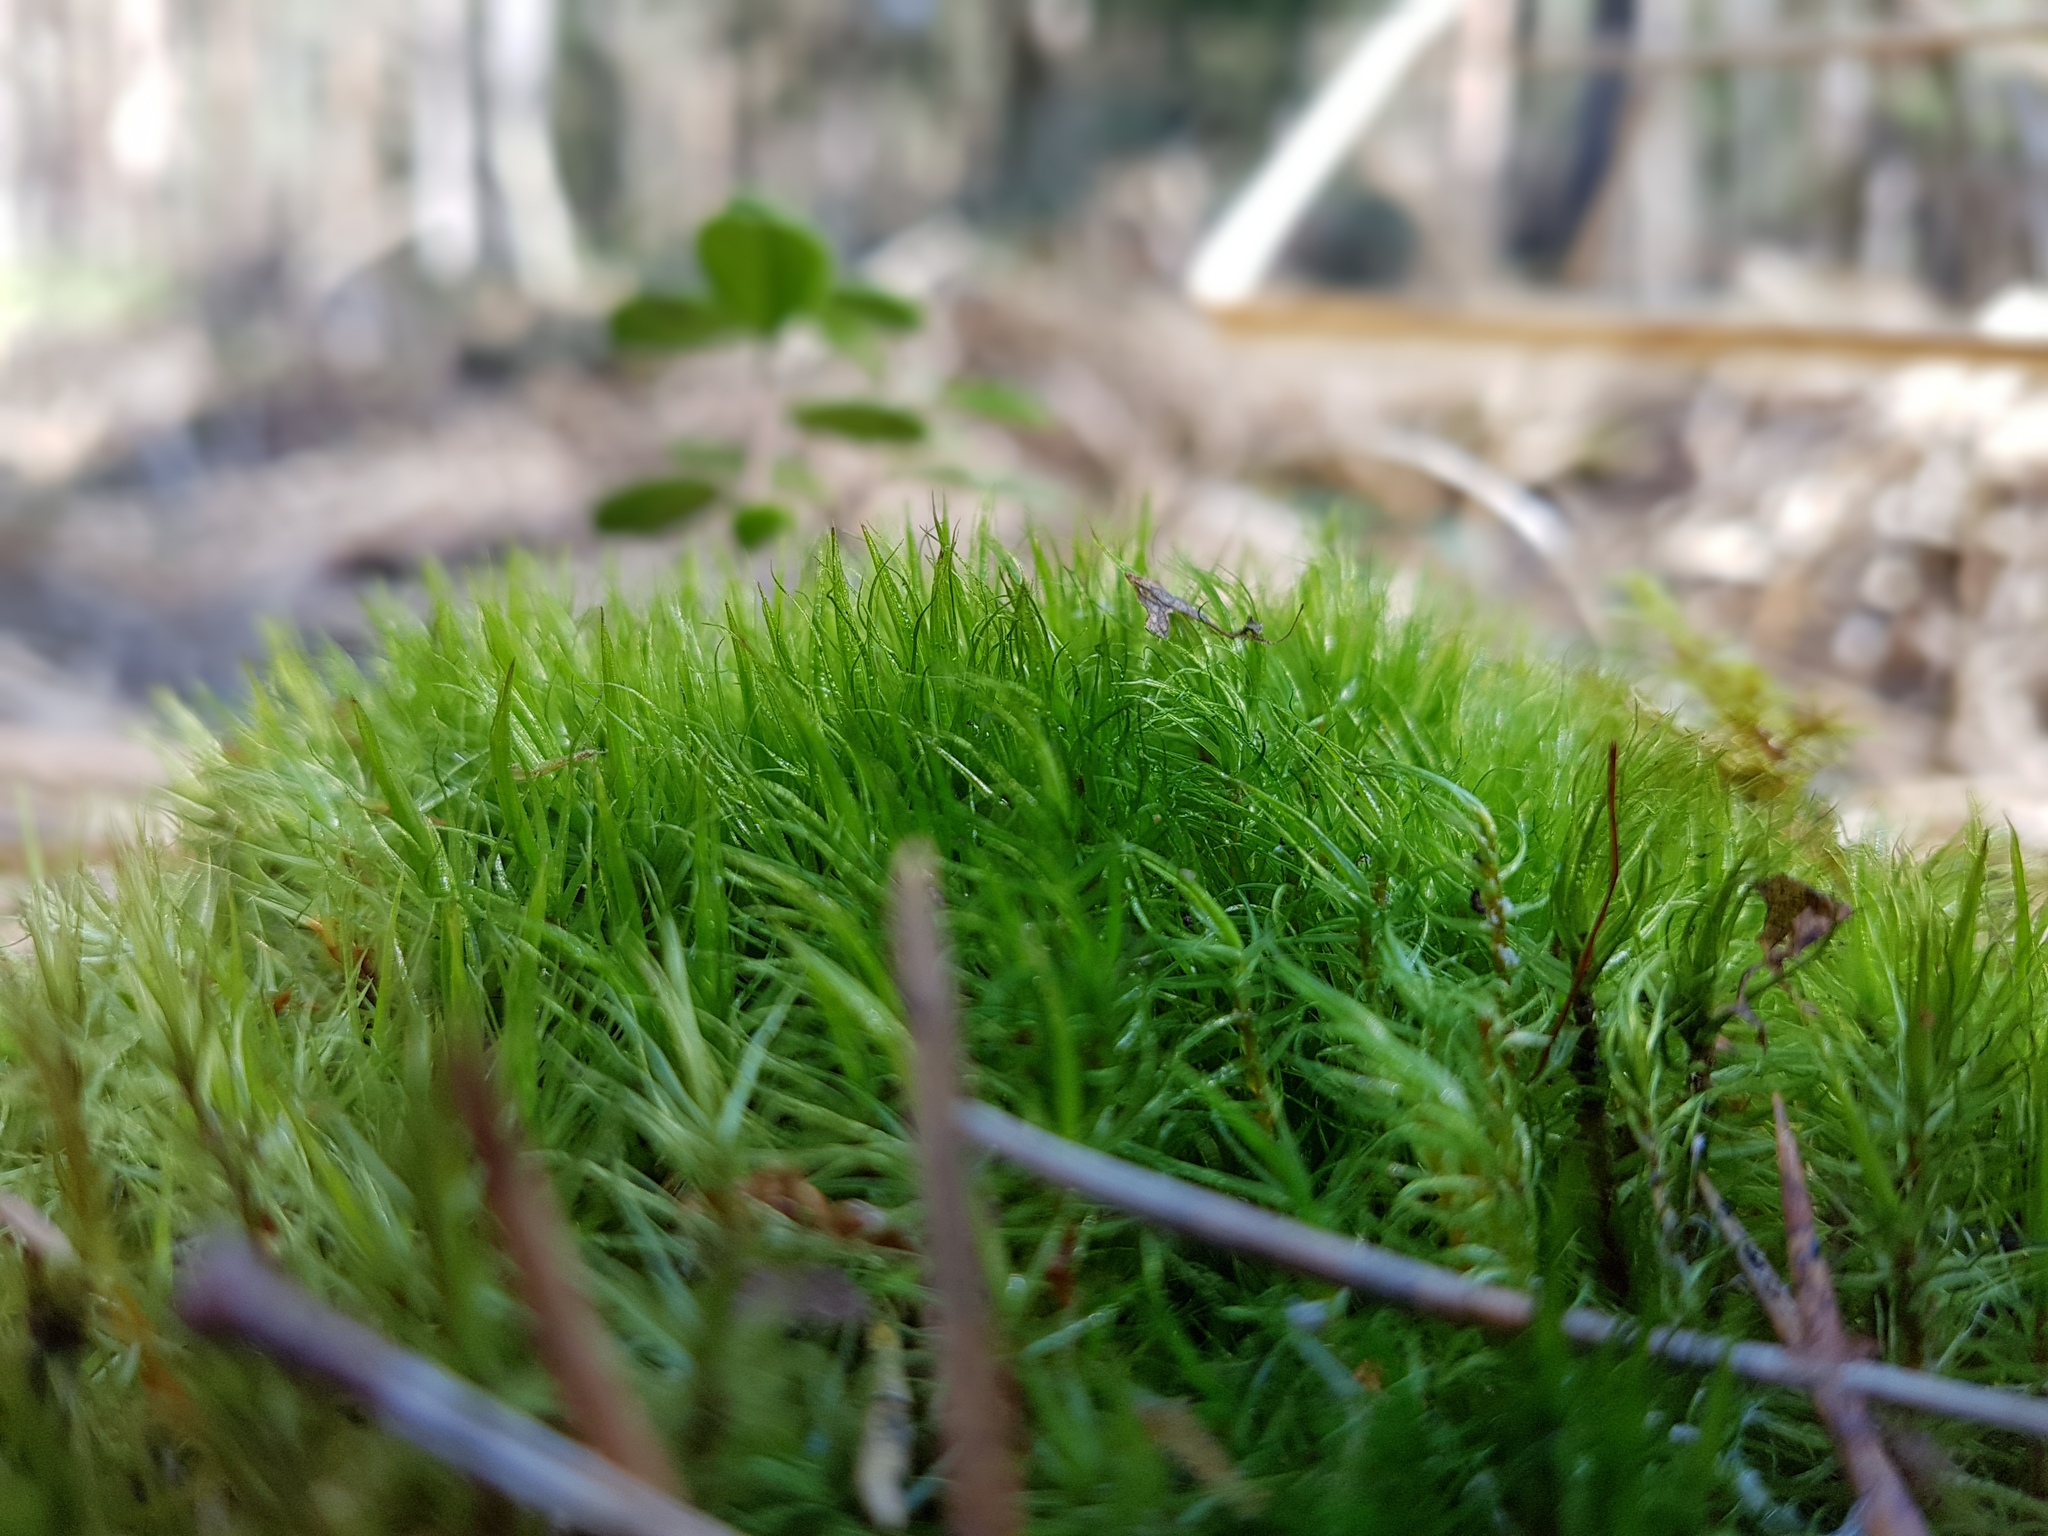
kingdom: Plantae
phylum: Bryophyta
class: Bryopsida
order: Dicranales
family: Dicranaceae
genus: Dicranum
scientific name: Dicranum scoparium
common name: Broom fork-moss
